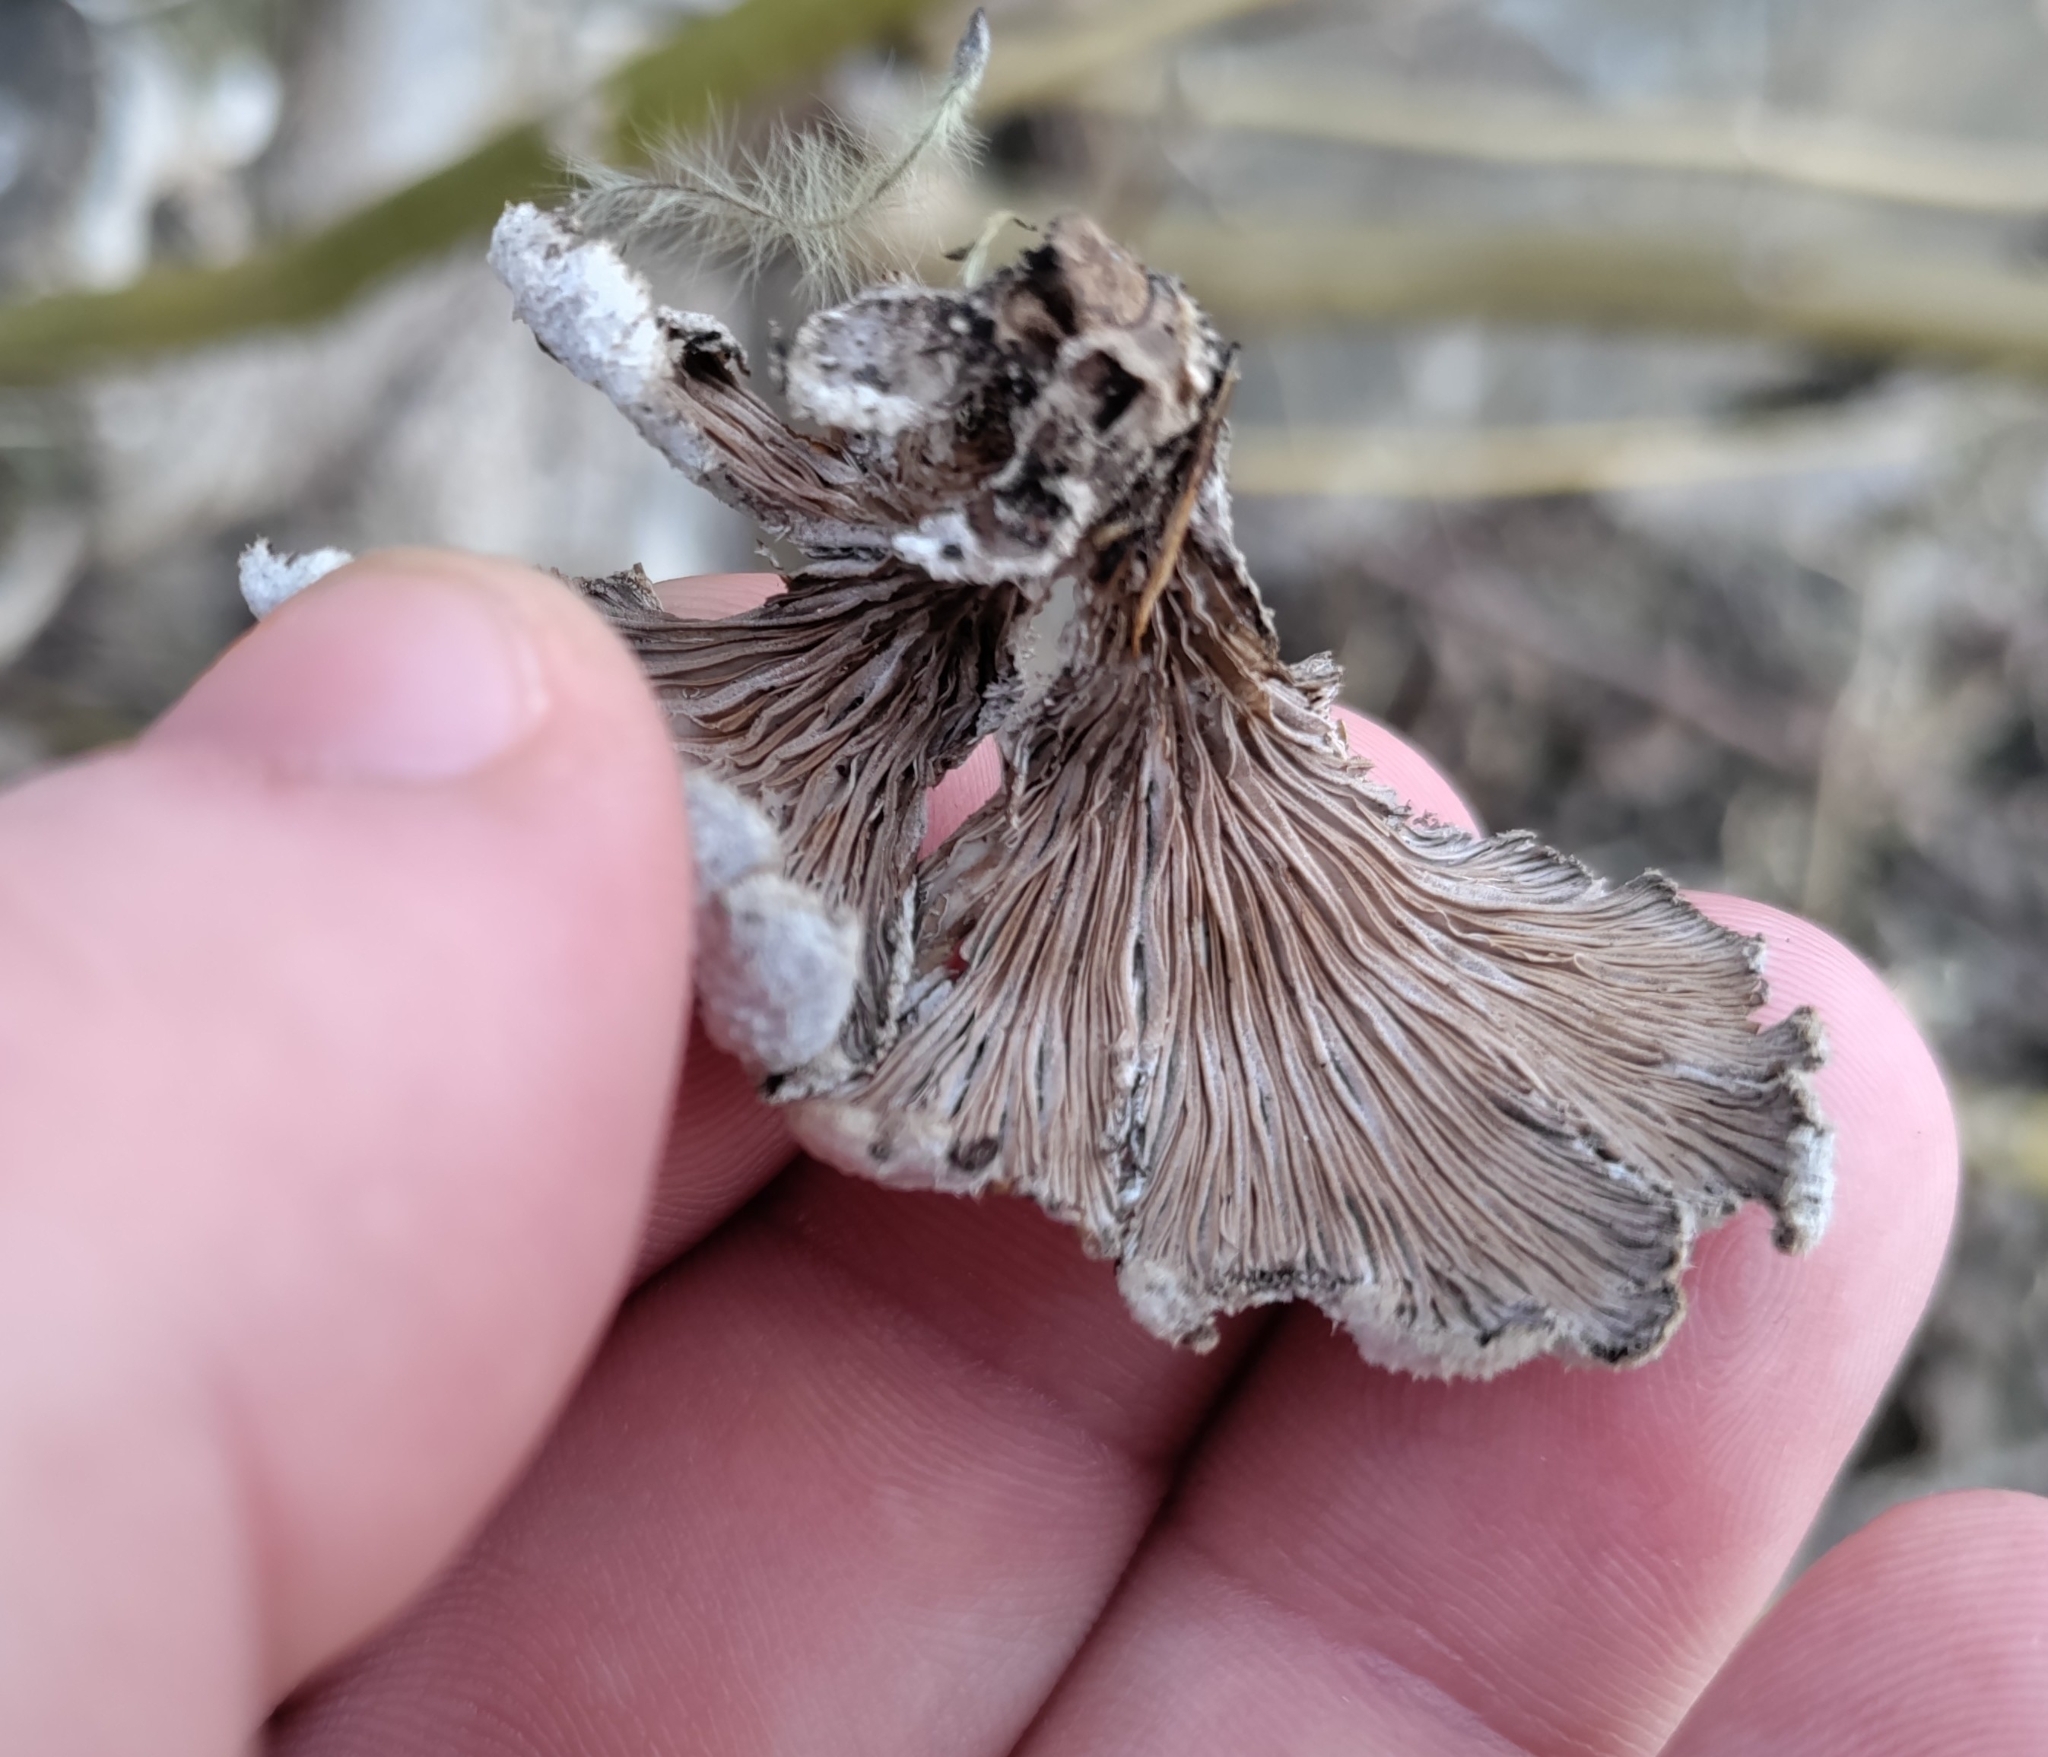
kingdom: Fungi
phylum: Basidiomycota
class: Agaricomycetes
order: Agaricales
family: Schizophyllaceae
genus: Schizophyllum
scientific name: Schizophyllum commune
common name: Common porecrust
